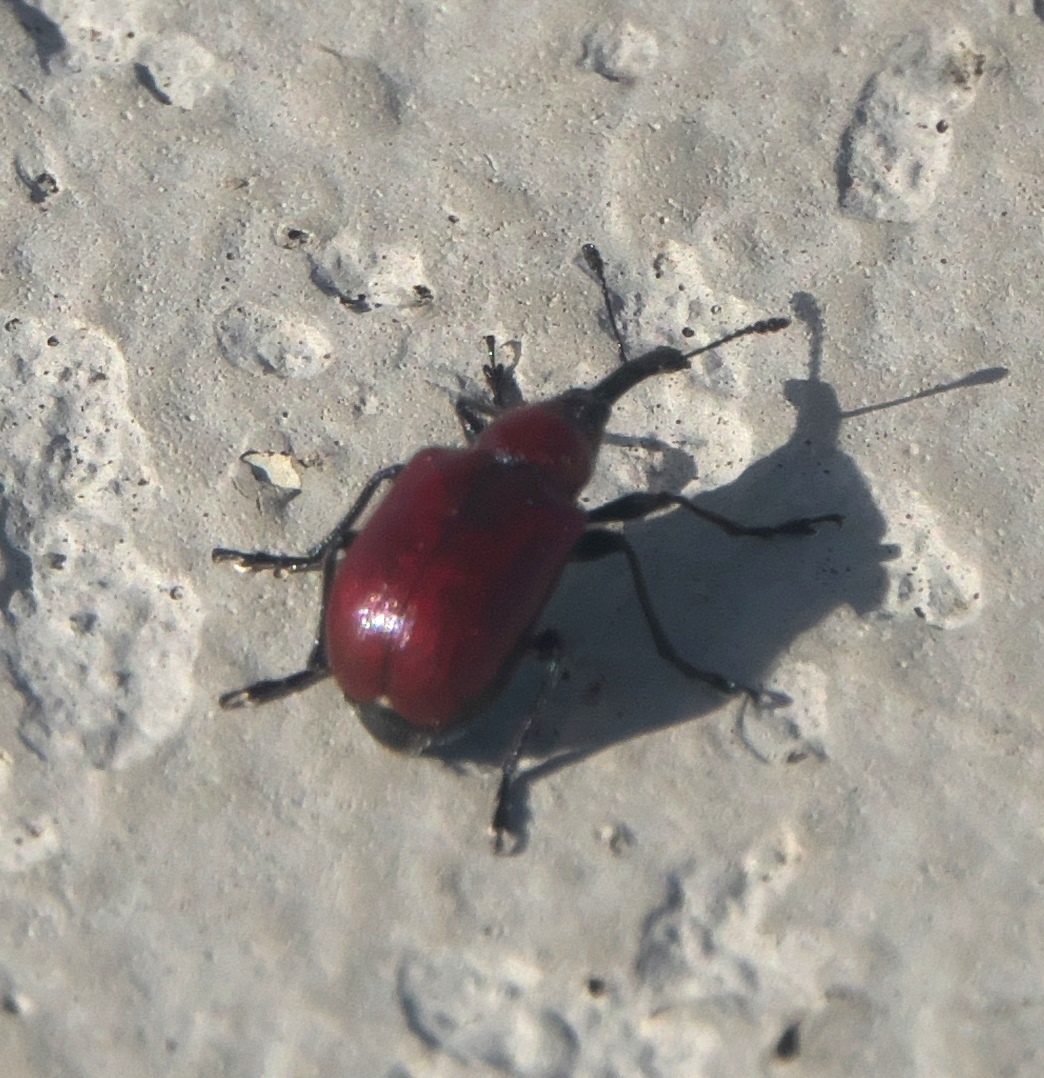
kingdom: Animalia
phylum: Arthropoda
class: Insecta
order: Coleoptera
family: Attelabidae
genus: Merhynchites
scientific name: Merhynchites wickhami
